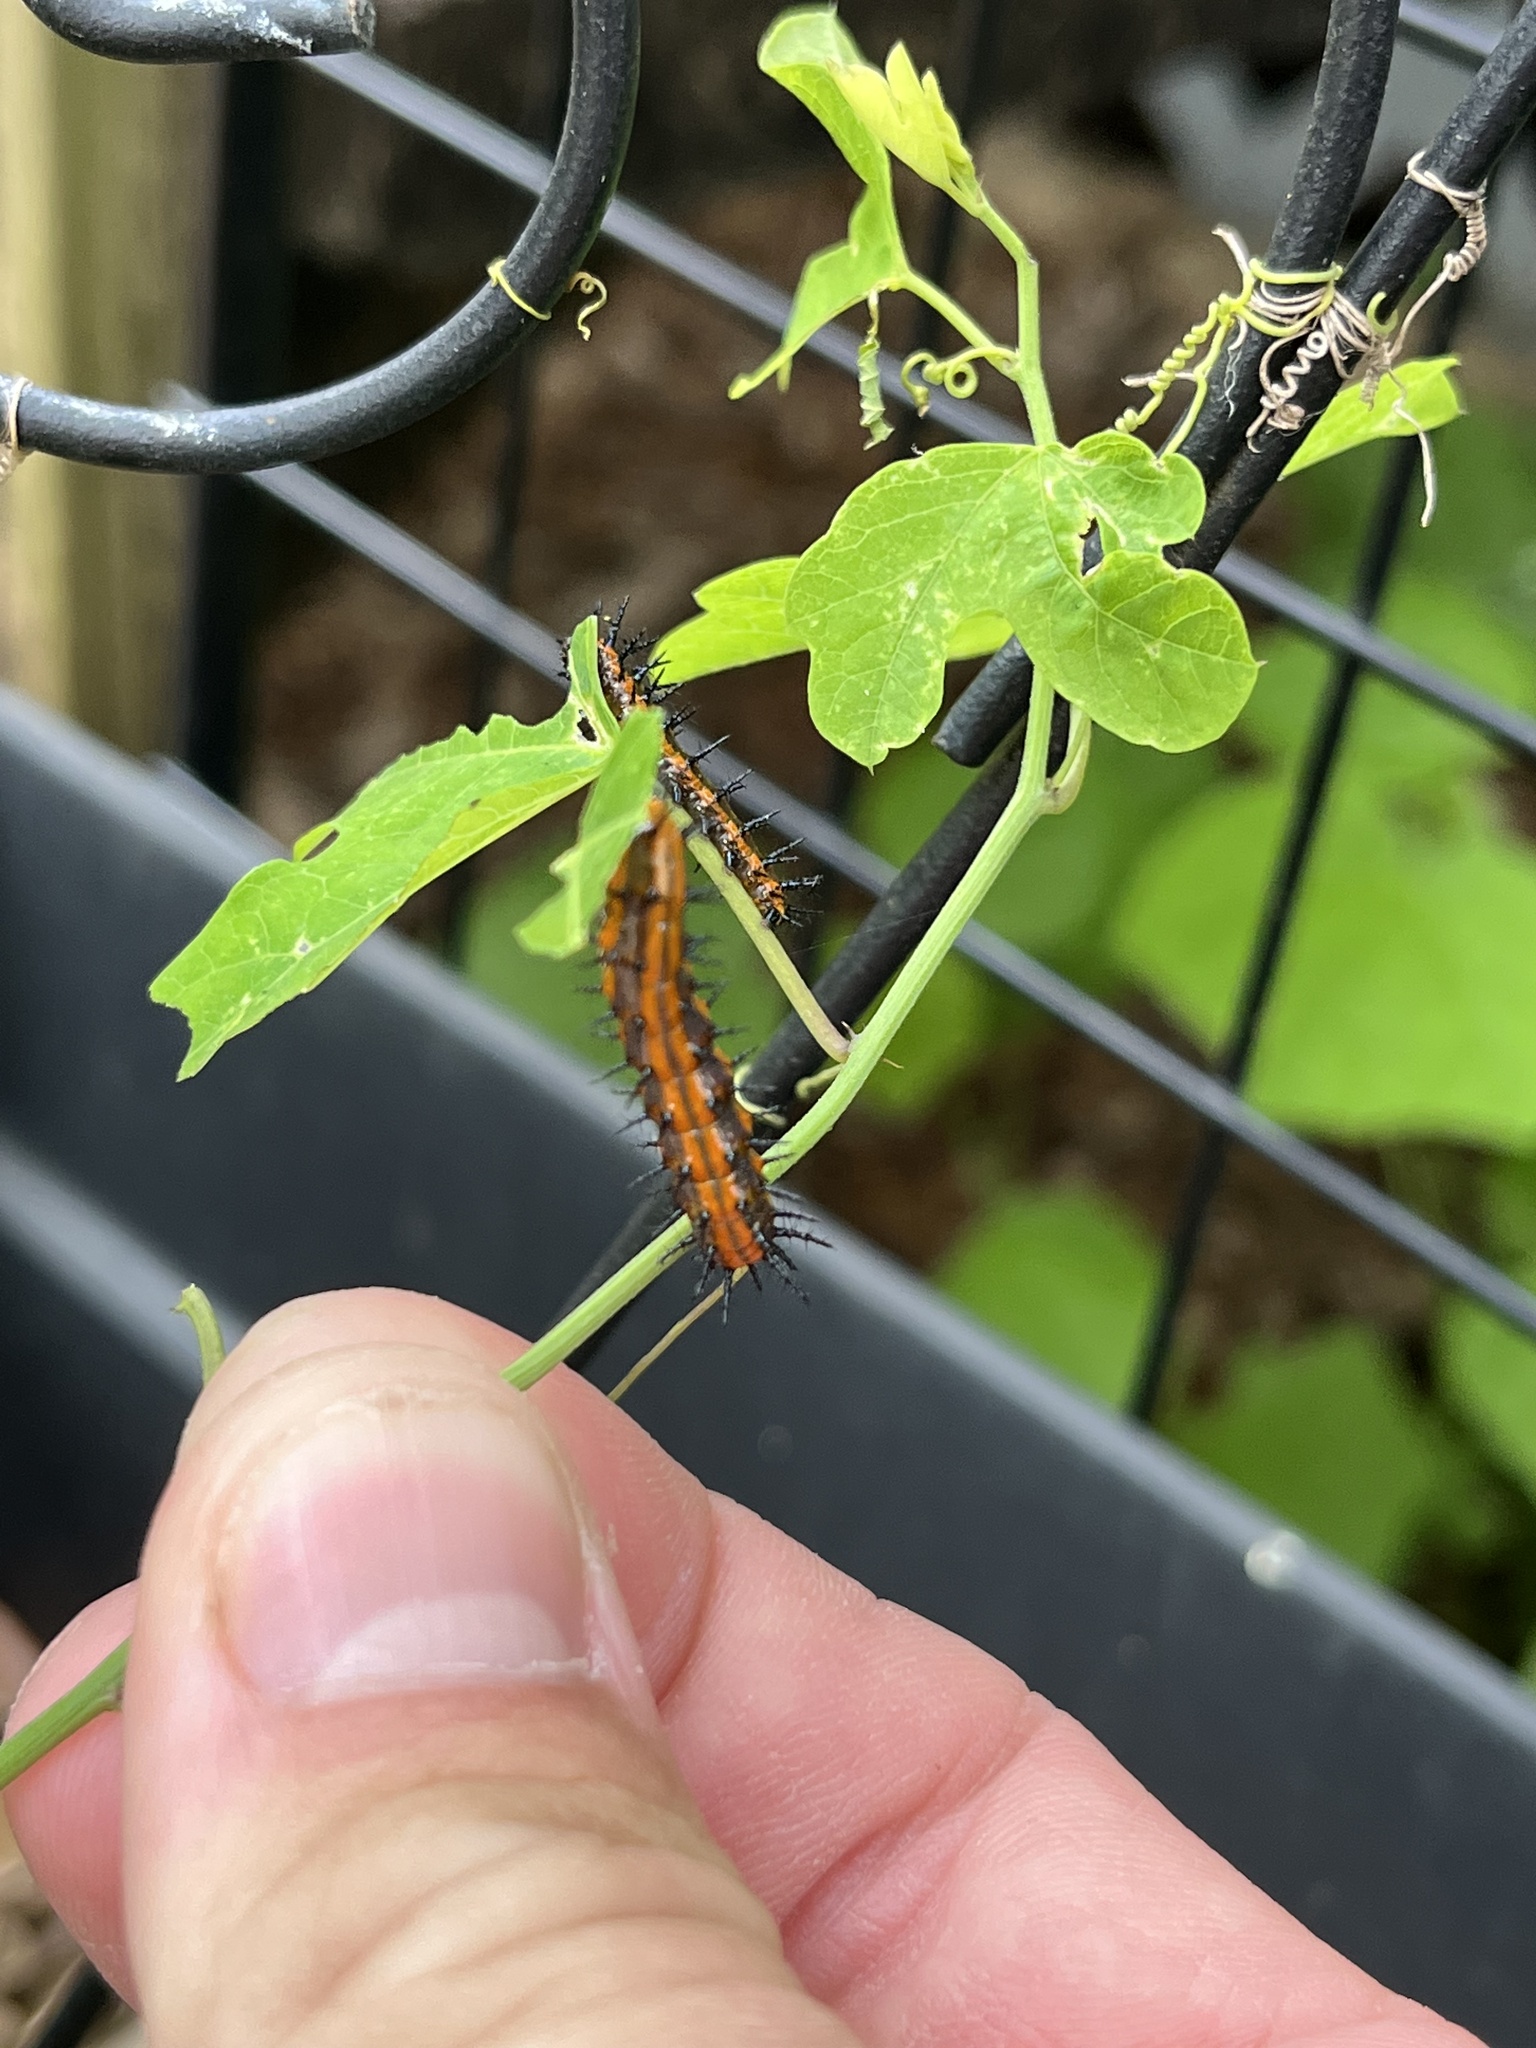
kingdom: Animalia
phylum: Arthropoda
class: Insecta
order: Lepidoptera
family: Nymphalidae
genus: Dione
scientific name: Dione vanillae
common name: Gulf fritillary
